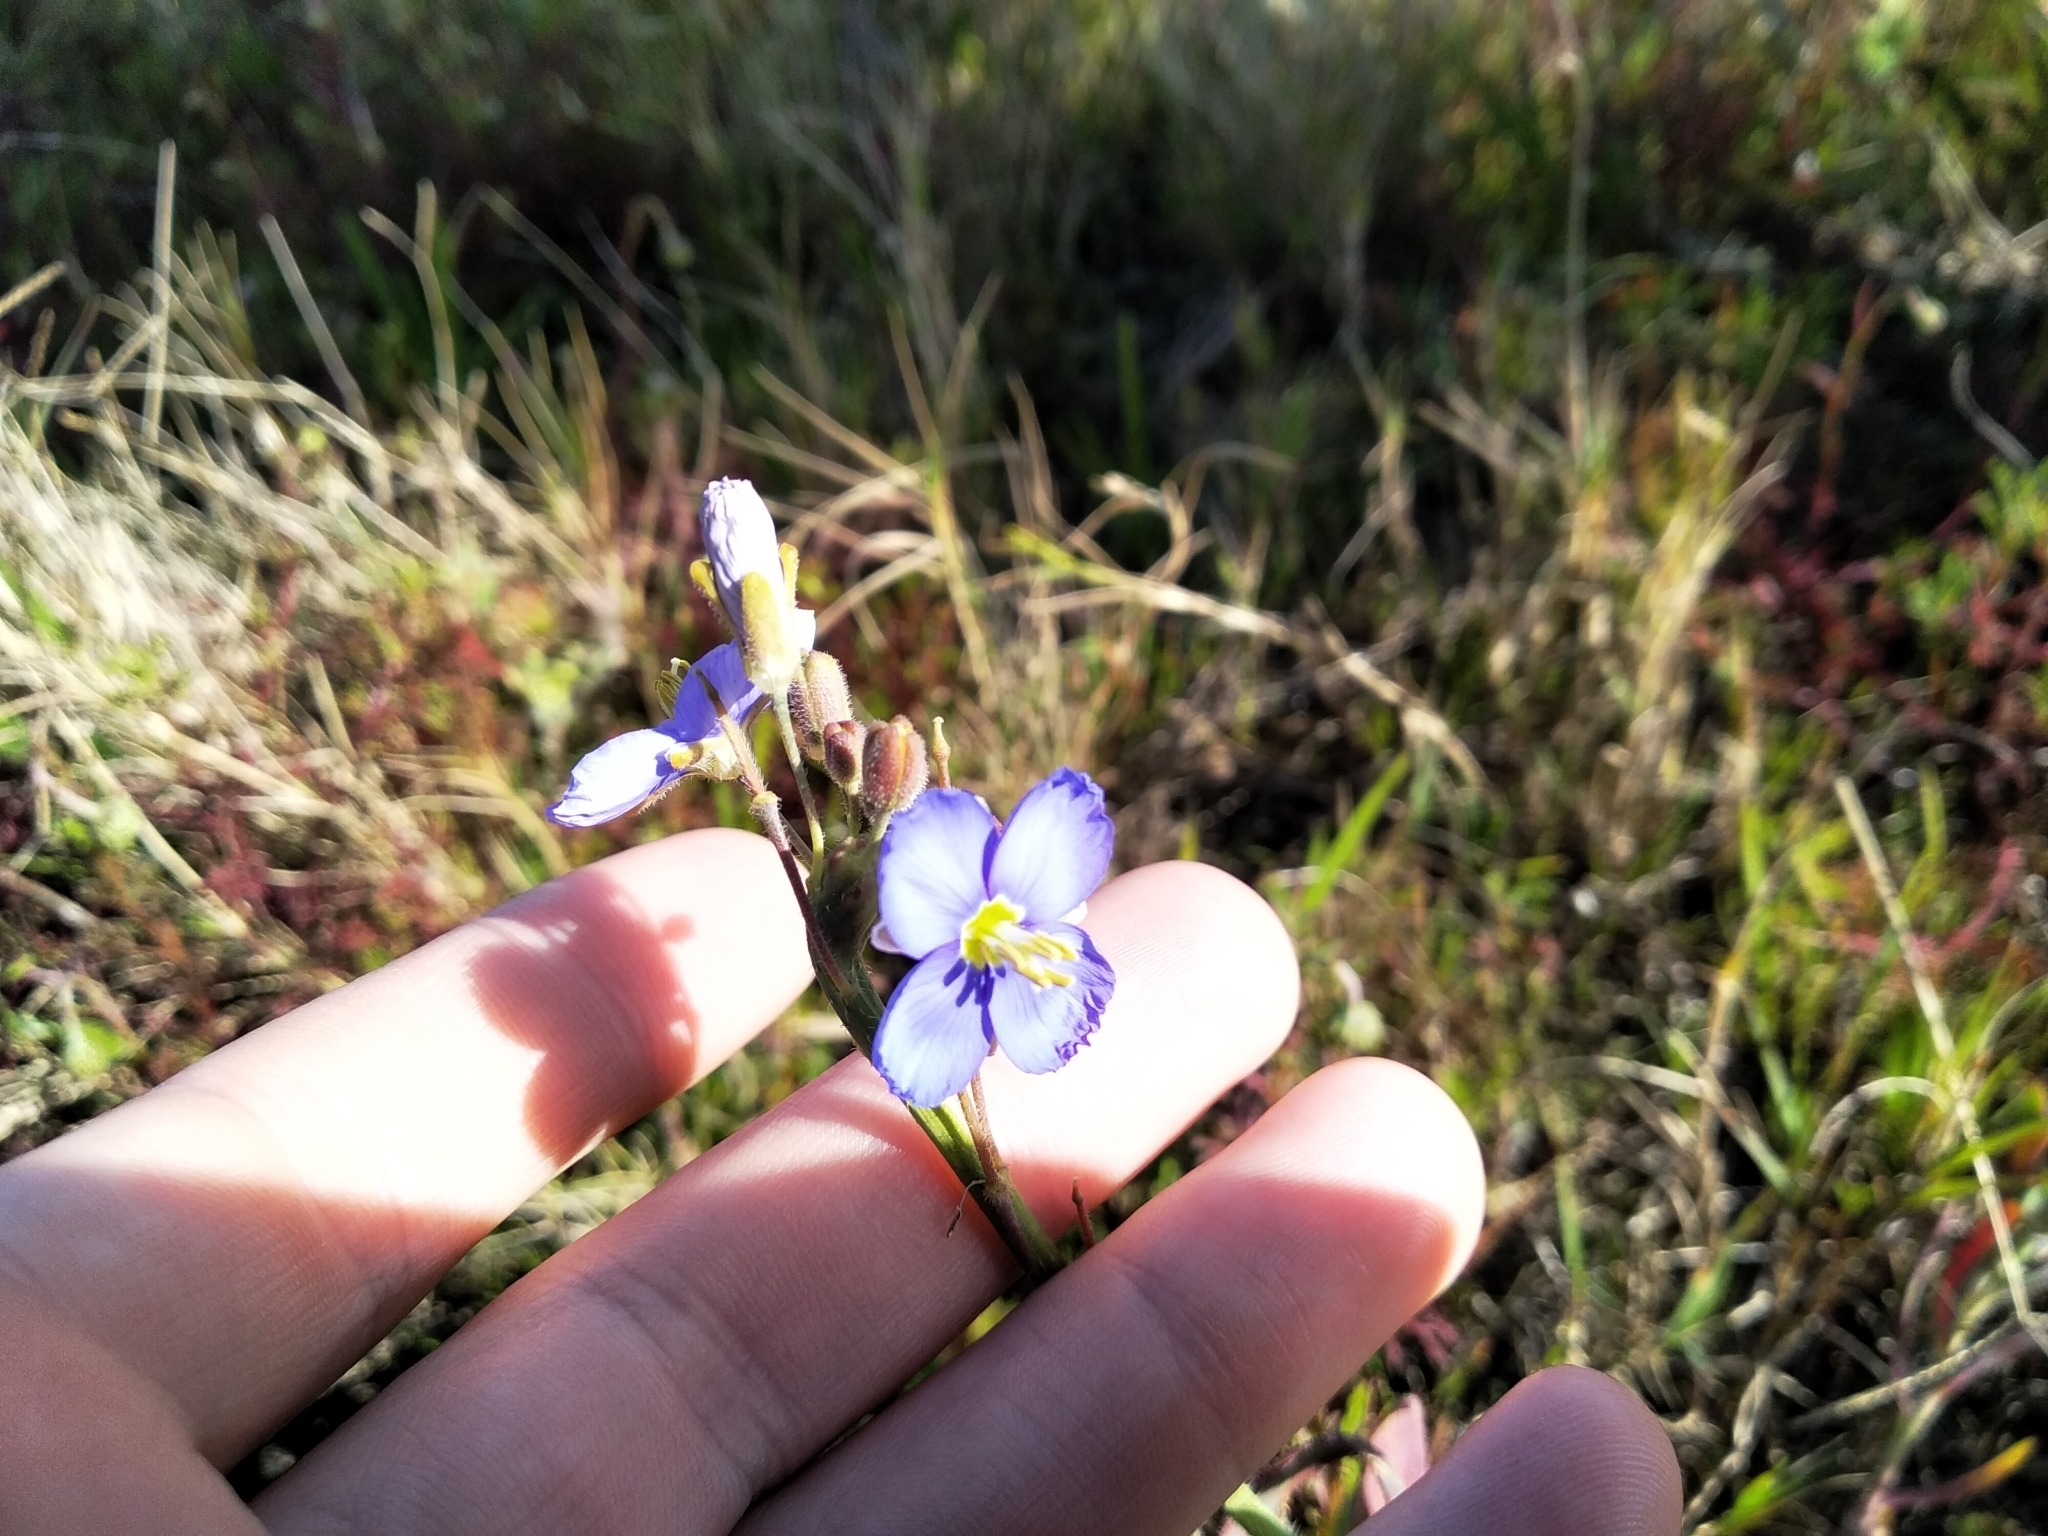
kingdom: Plantae
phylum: Tracheophyta
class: Magnoliopsida
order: Brassicales
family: Brassicaceae
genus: Heliophila
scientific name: Heliophila africana
